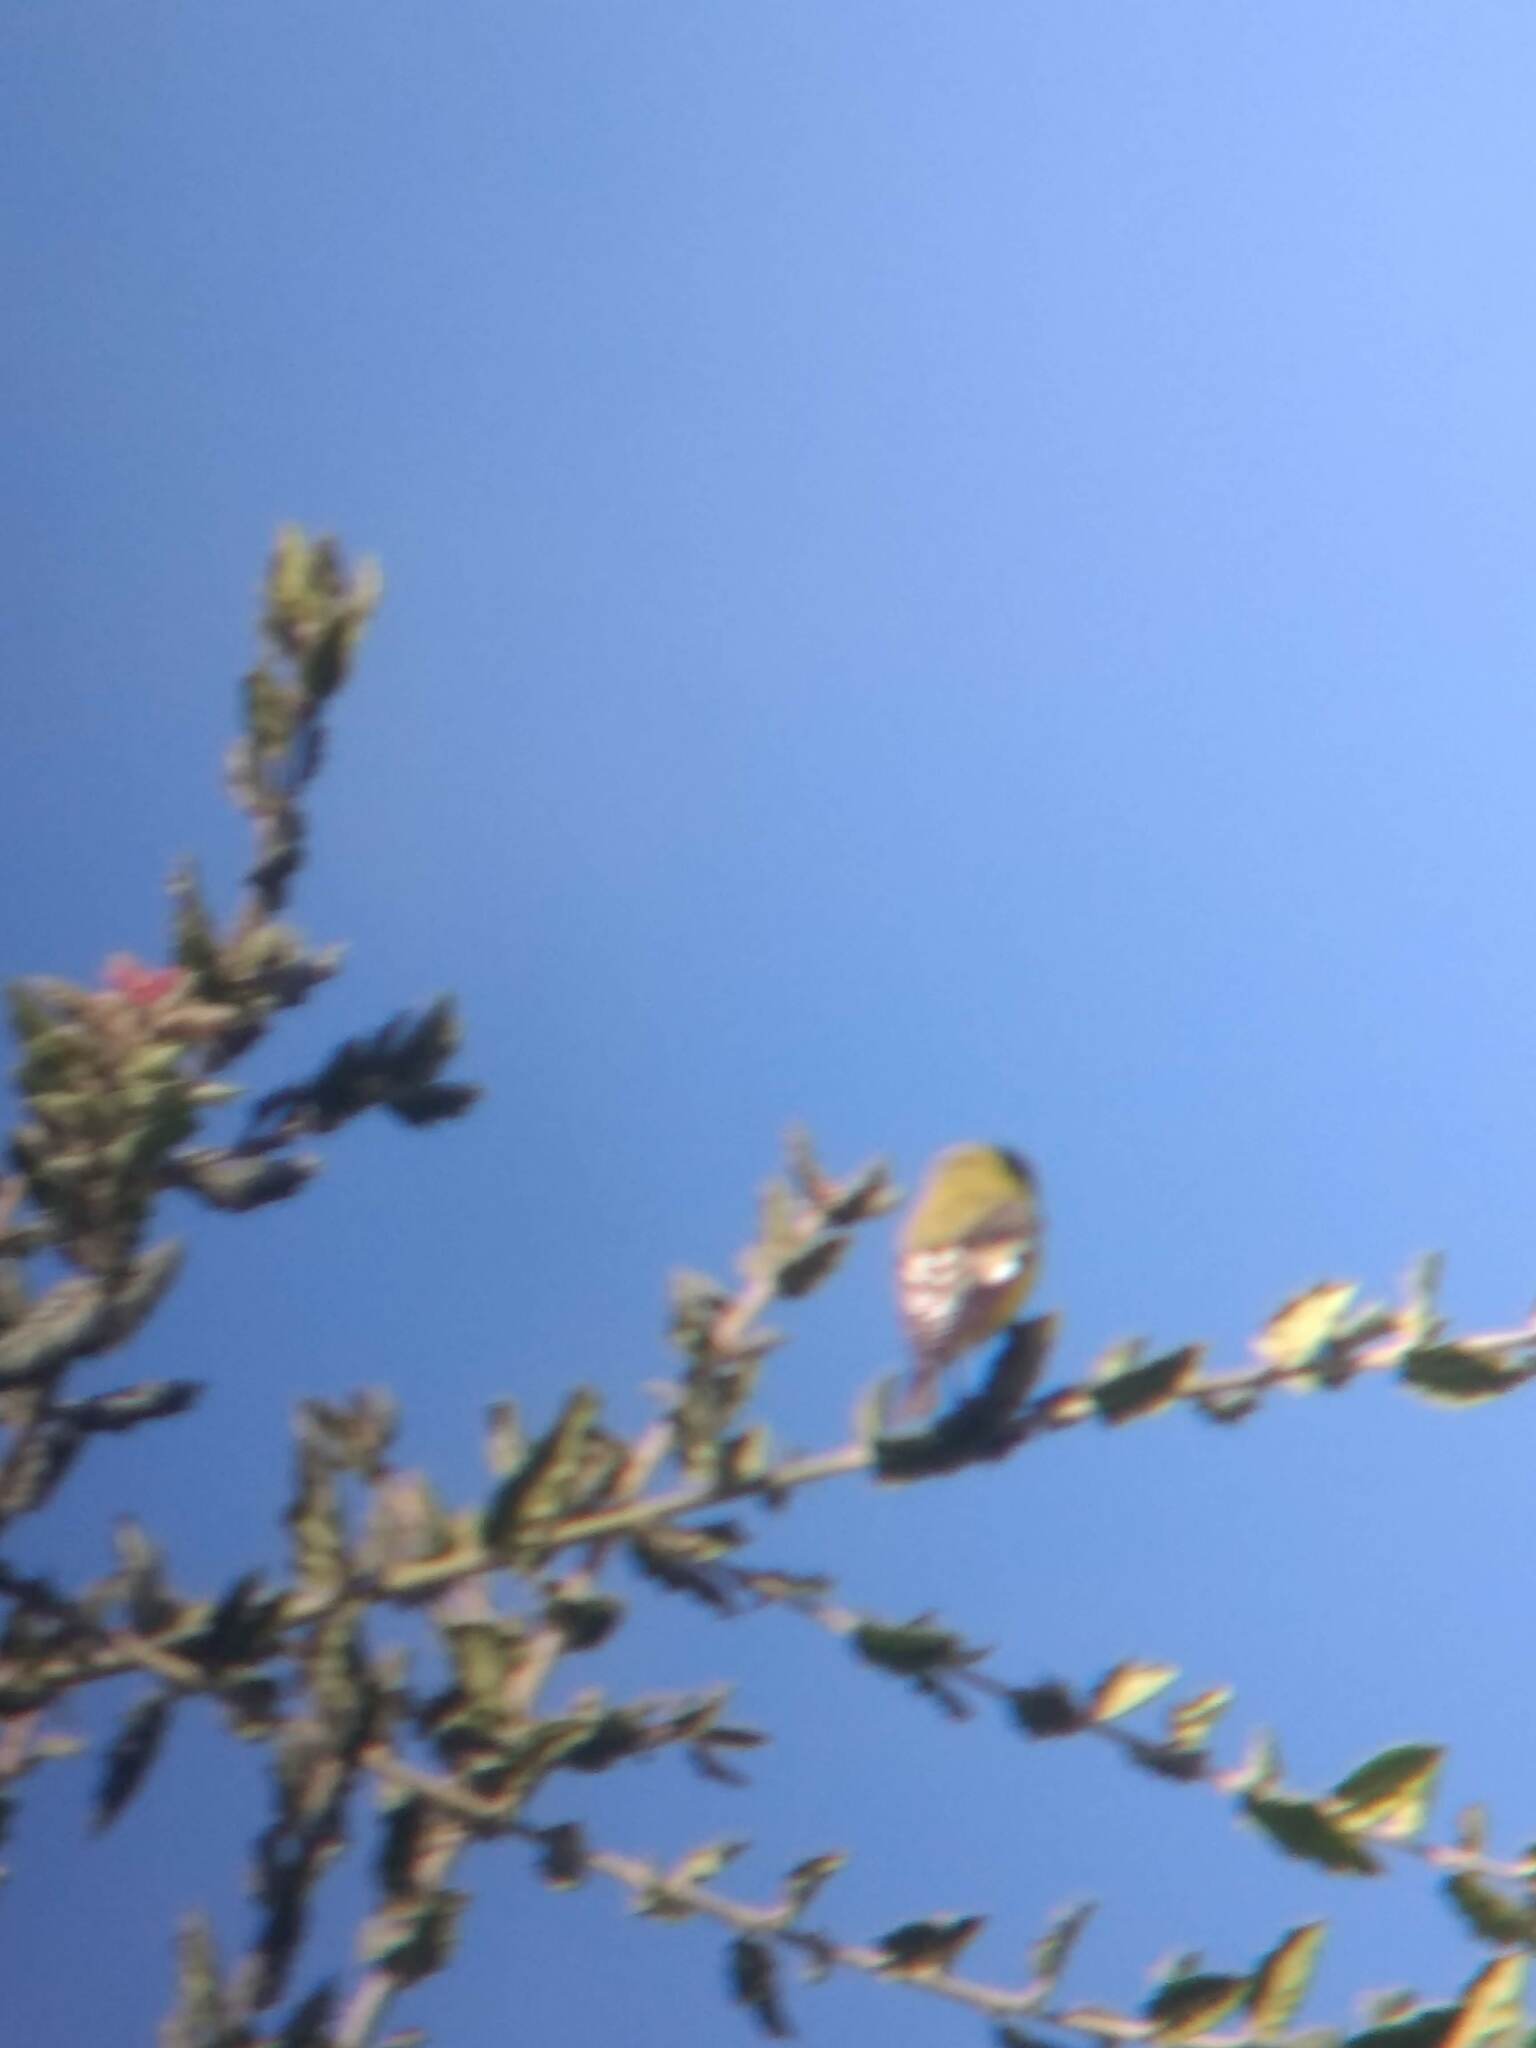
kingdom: Animalia
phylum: Chordata
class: Aves
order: Passeriformes
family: Fringillidae
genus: Spinus
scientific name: Spinus psaltria
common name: Lesser goldfinch
